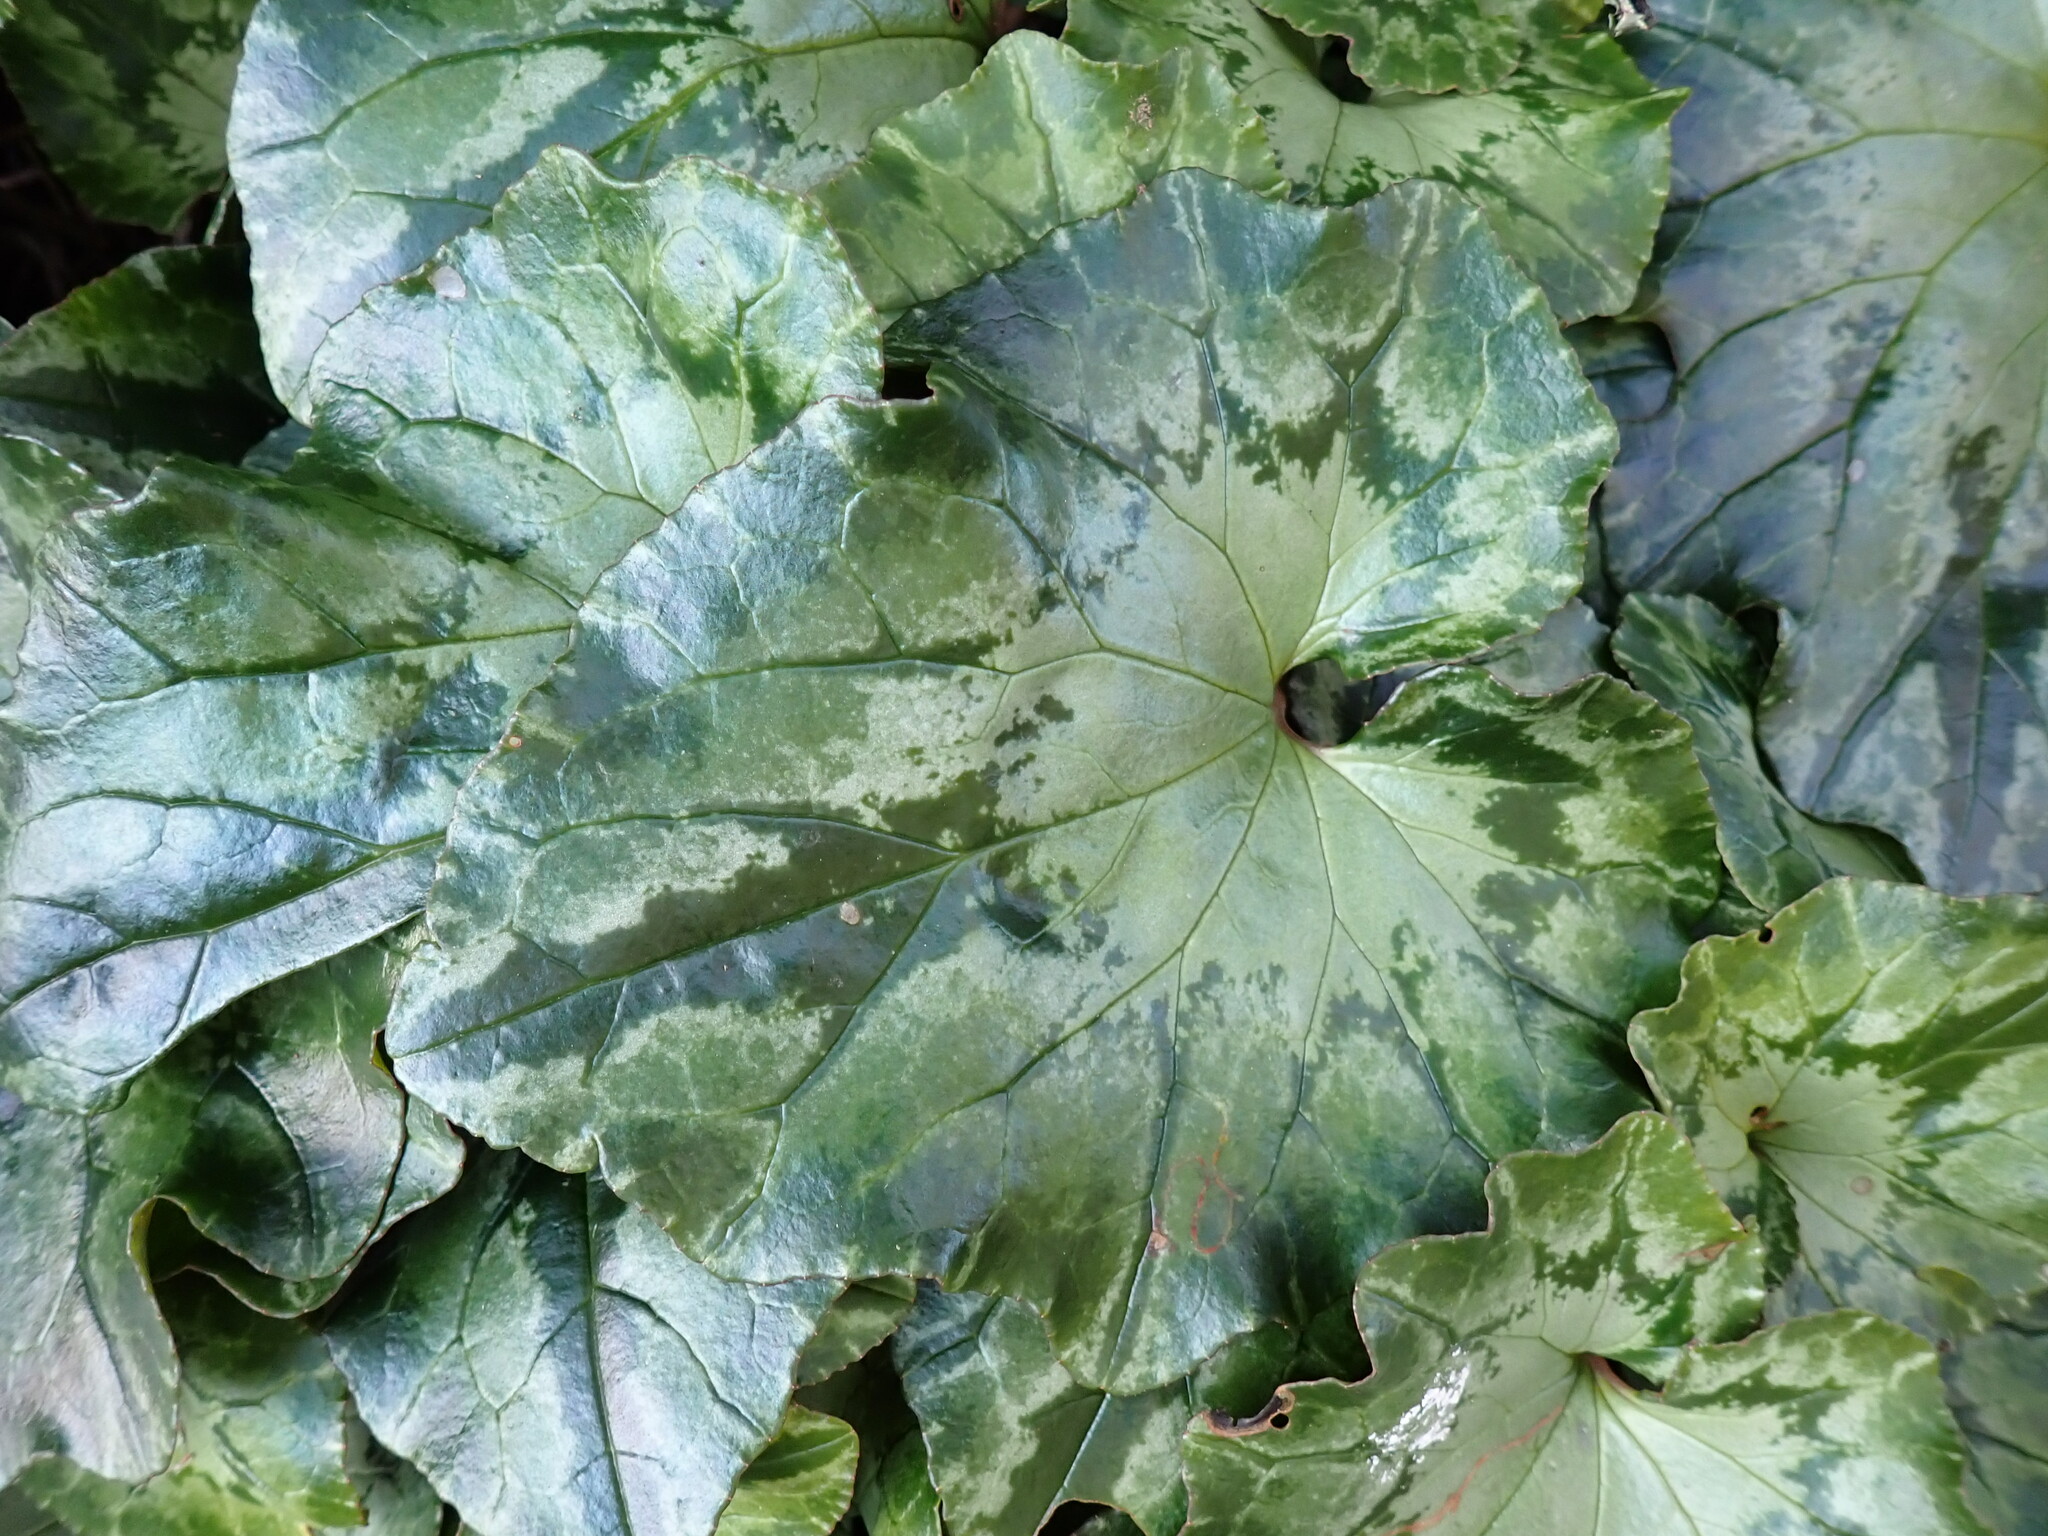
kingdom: Plantae
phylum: Tracheophyta
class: Magnoliopsida
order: Ericales
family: Primulaceae
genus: Cyclamen
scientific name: Cyclamen hederifolium
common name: Sowbread
